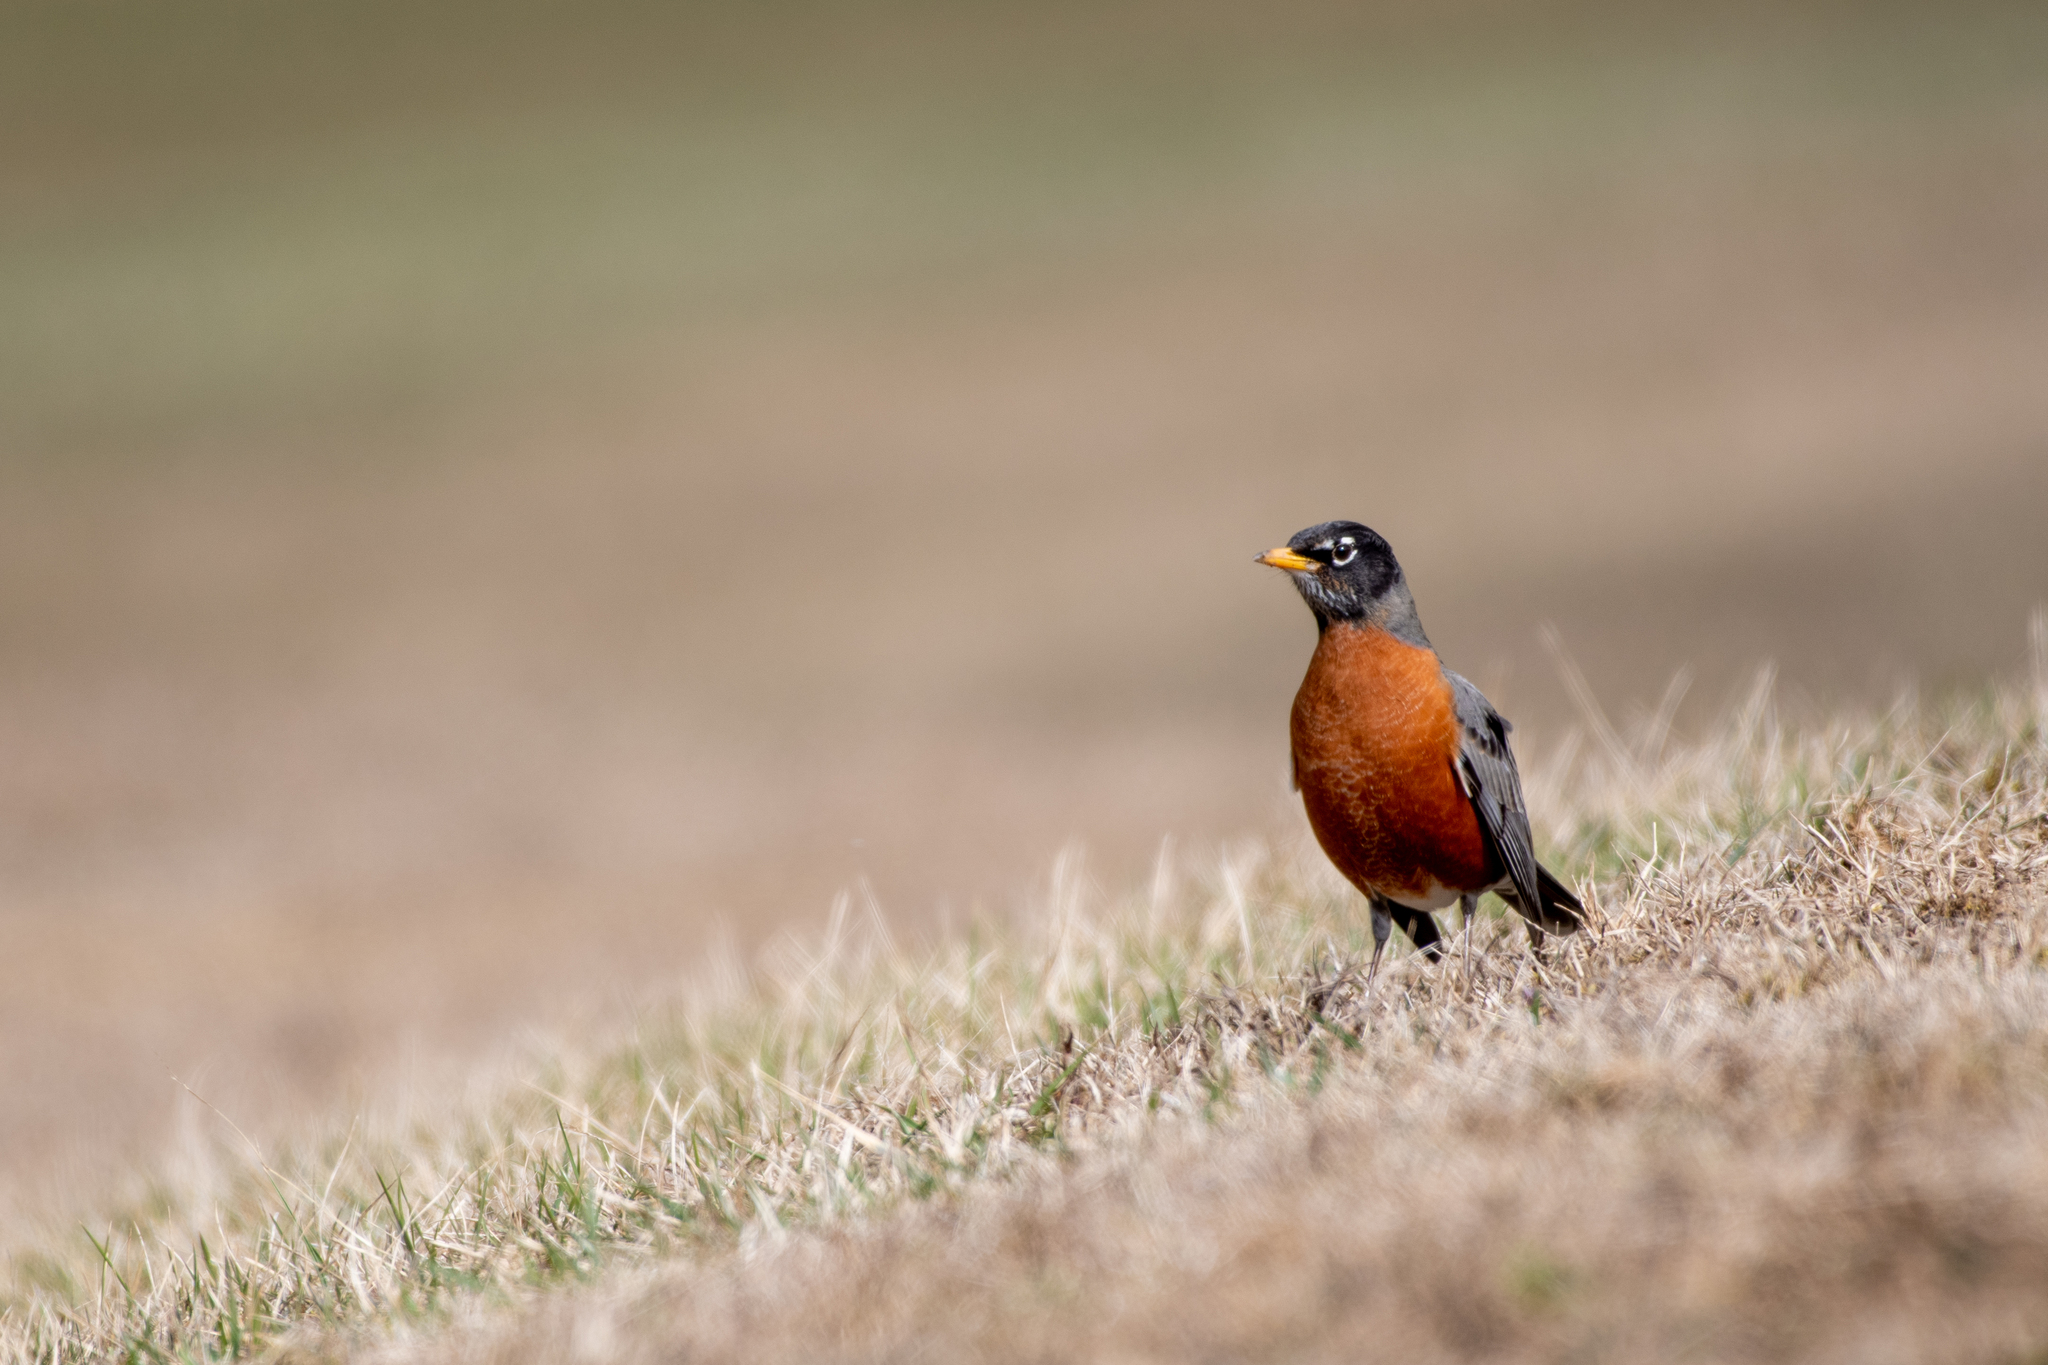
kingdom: Animalia
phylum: Chordata
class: Aves
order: Passeriformes
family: Turdidae
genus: Turdus
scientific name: Turdus migratorius
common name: American robin
